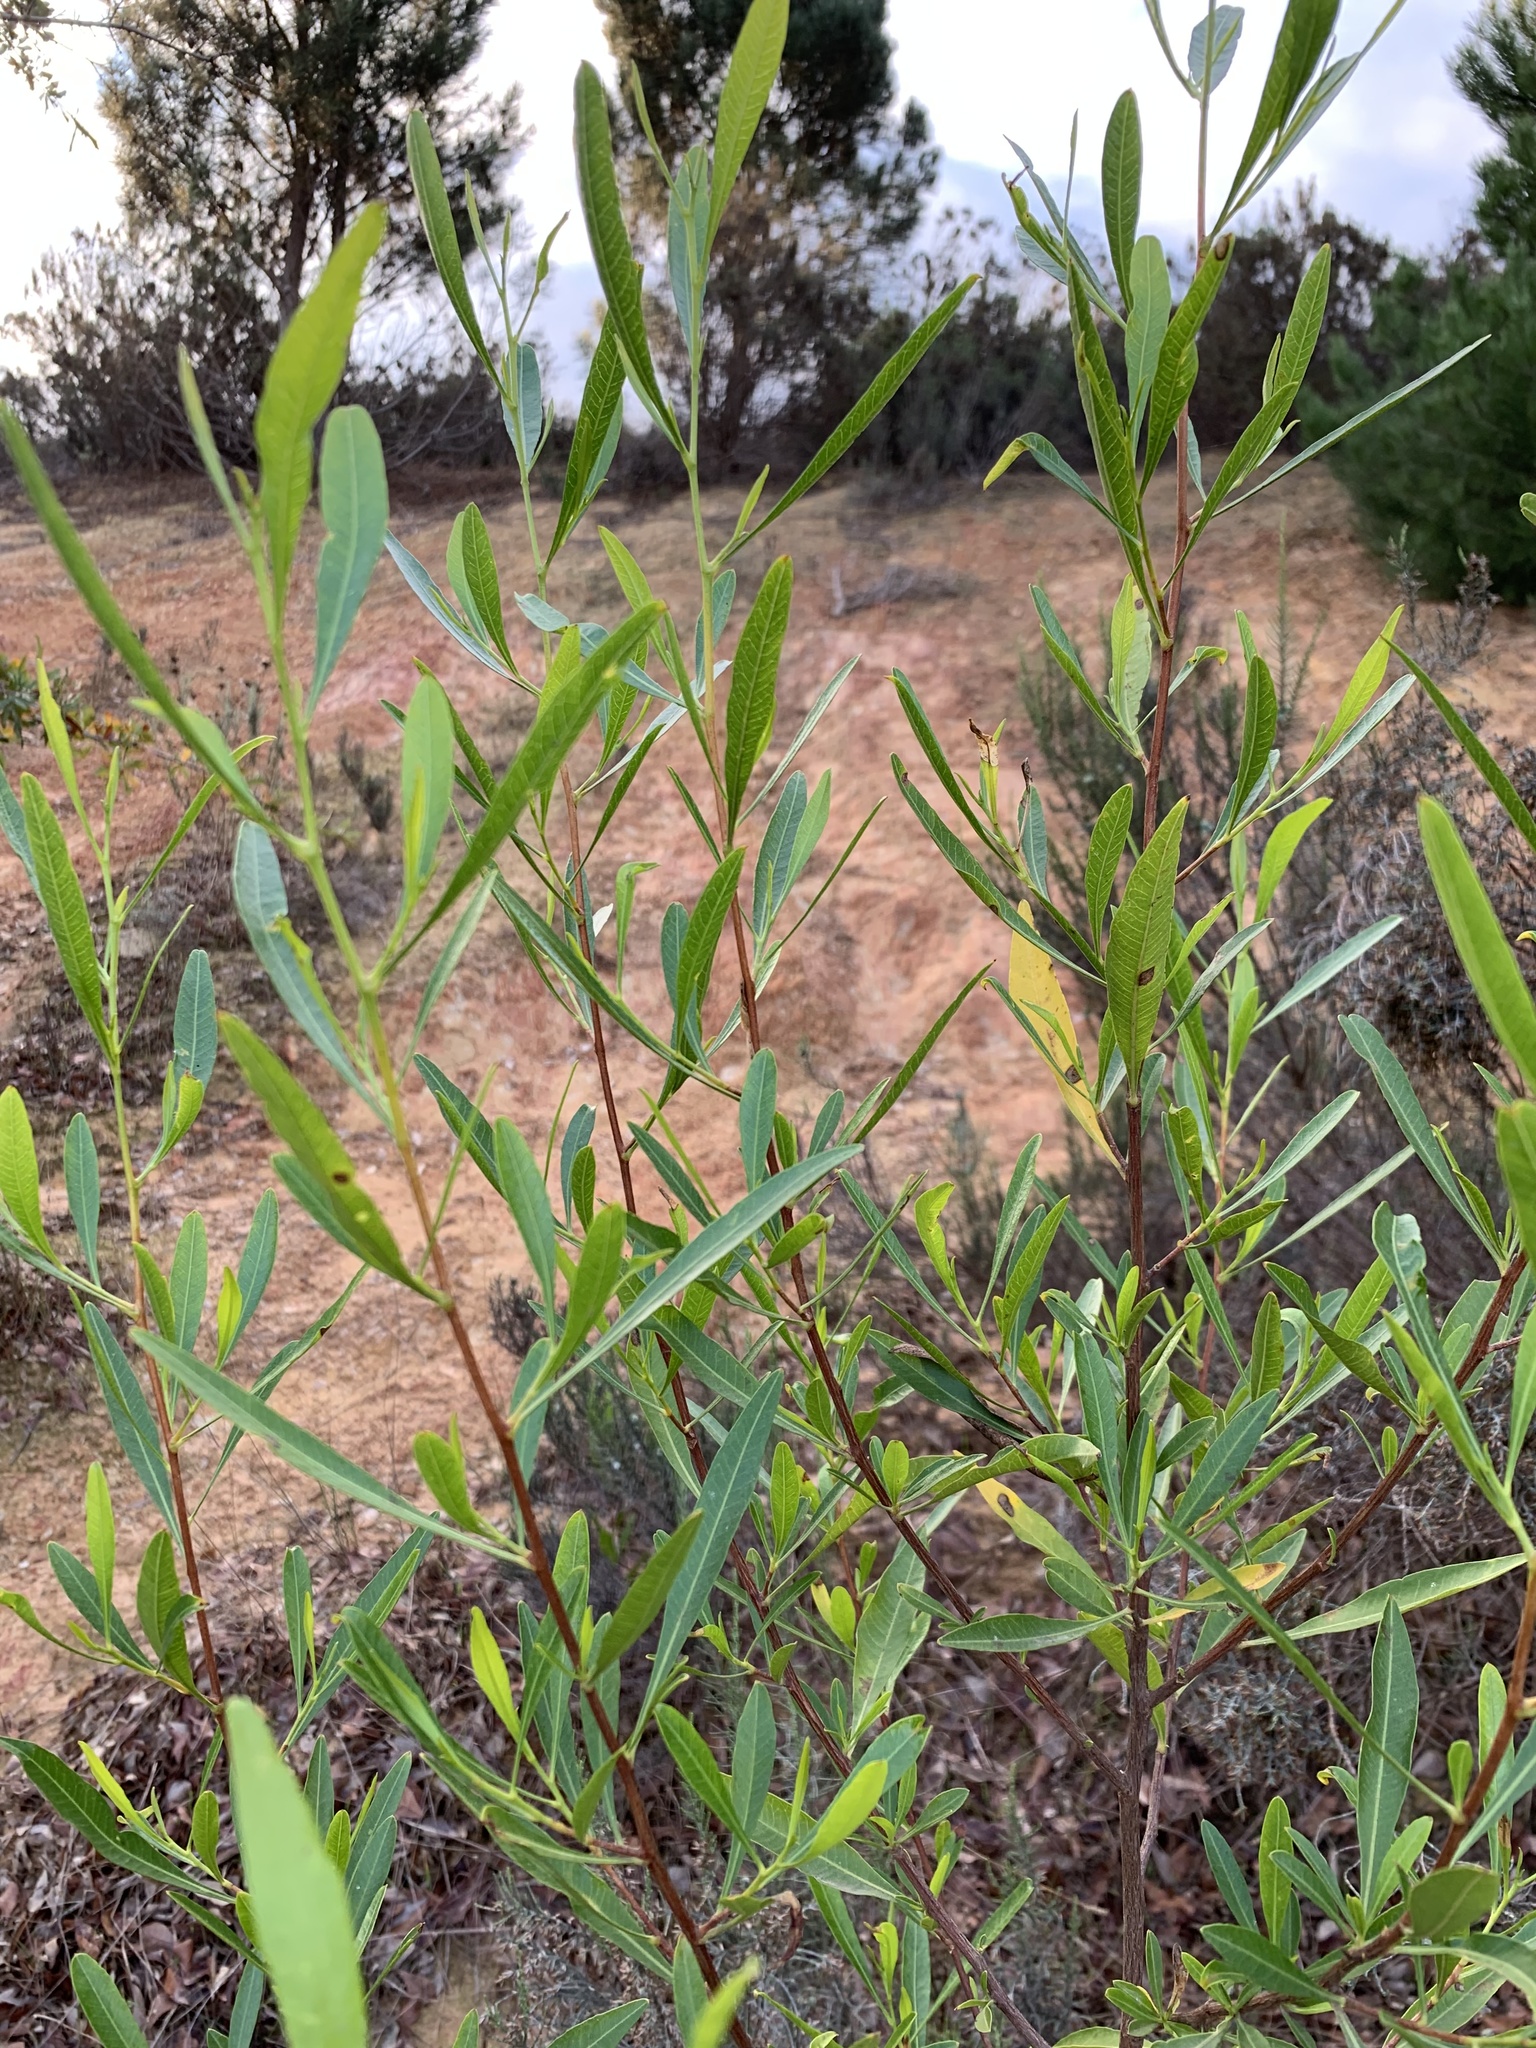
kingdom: Plantae
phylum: Tracheophyta
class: Magnoliopsida
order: Sapindales
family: Sapindaceae
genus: Dodonaea
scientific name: Dodonaea viscosa
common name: Hopbush
